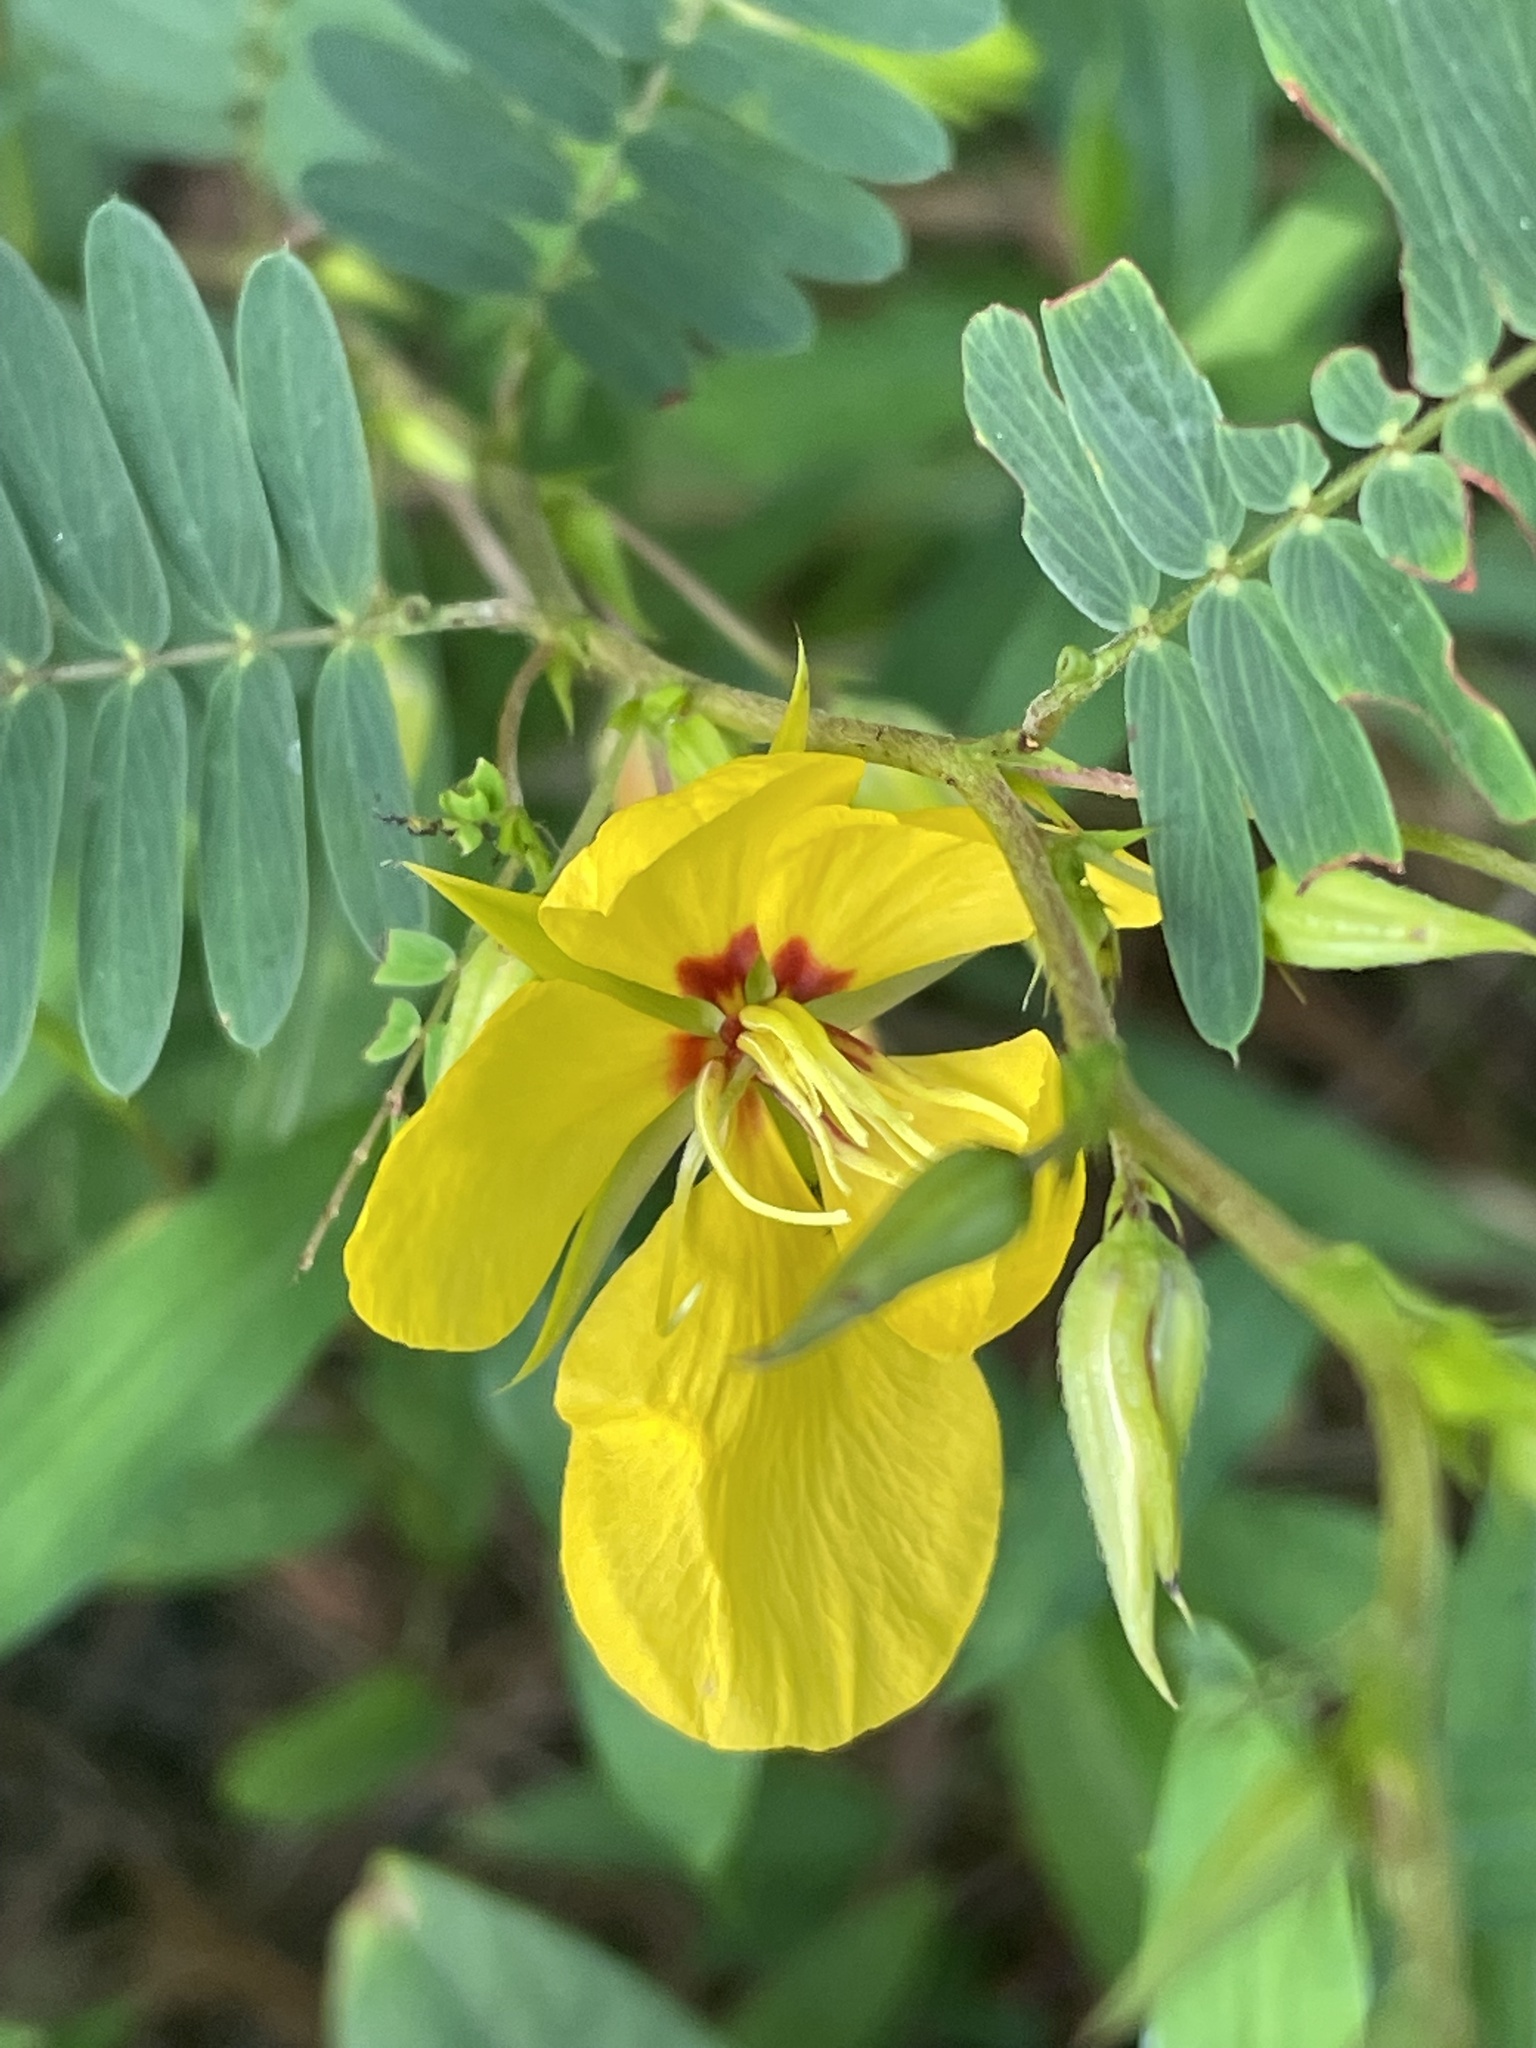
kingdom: Plantae
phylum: Tracheophyta
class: Magnoliopsida
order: Fabales
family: Fabaceae
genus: Chamaecrista
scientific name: Chamaecrista fasciculata
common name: Golden cassia
